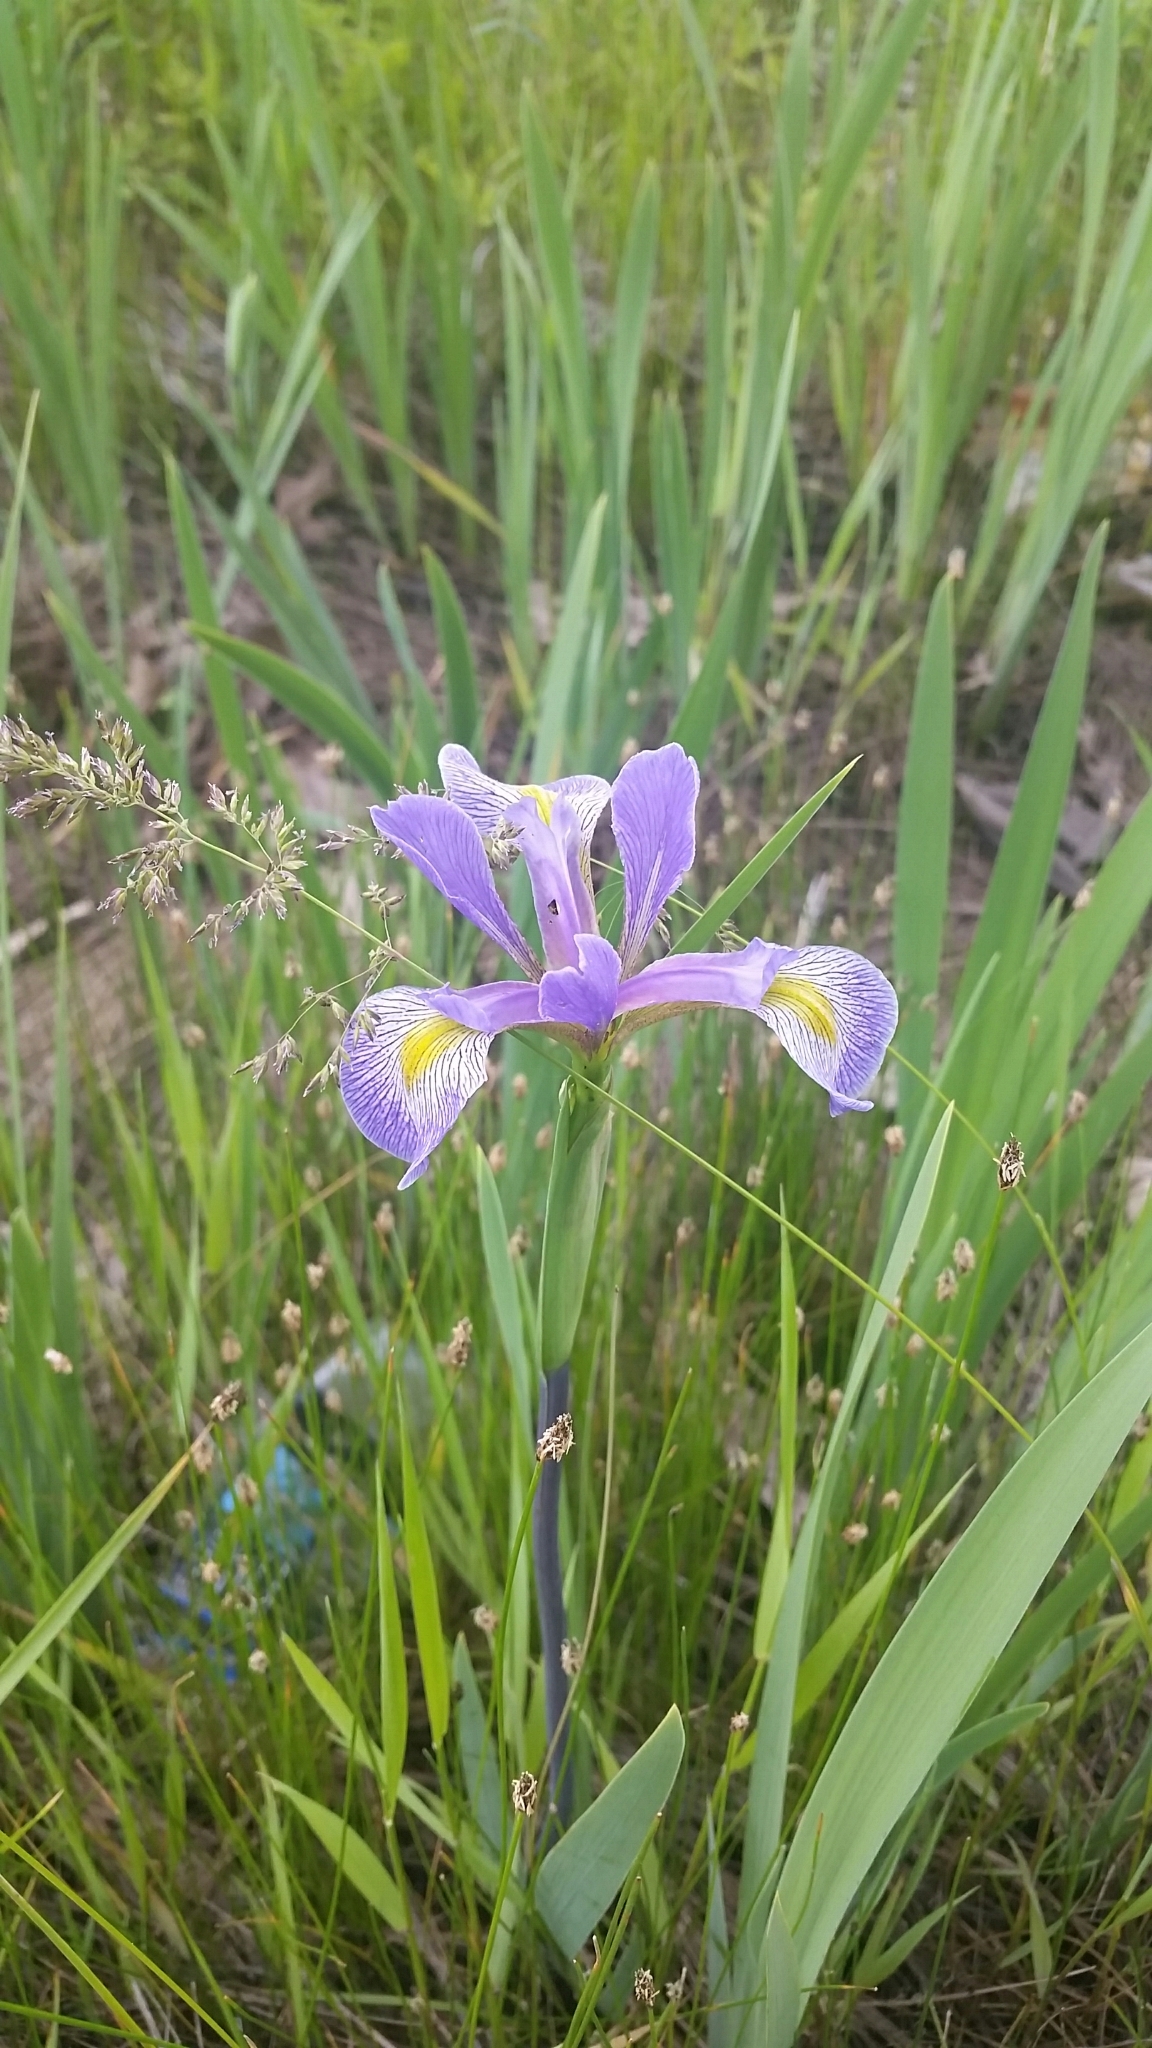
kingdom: Plantae
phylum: Tracheophyta
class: Liliopsida
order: Asparagales
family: Iridaceae
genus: Iris
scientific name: Iris virginica
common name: Southern blue flag
